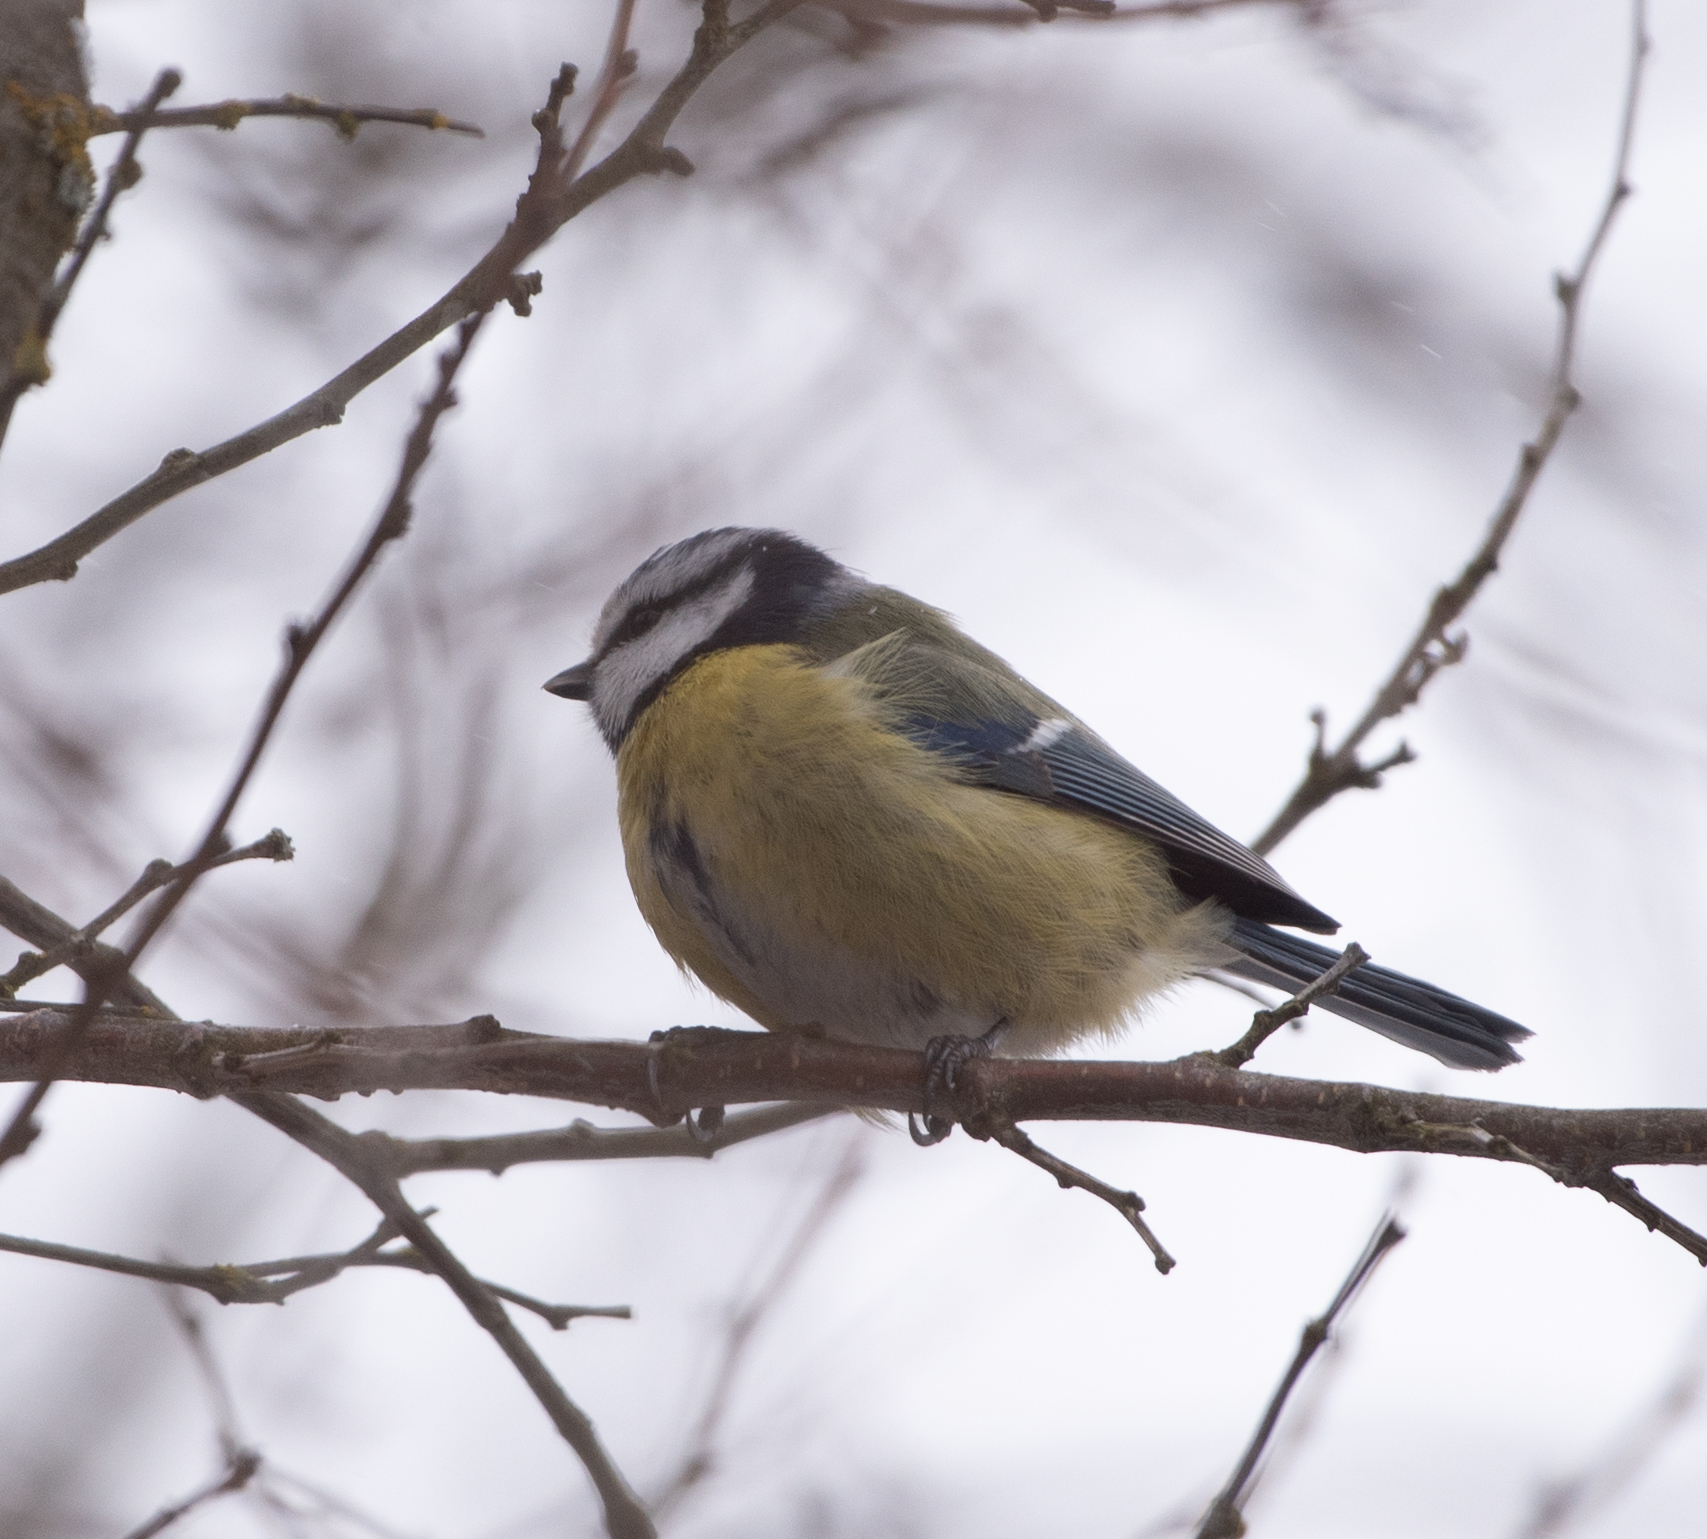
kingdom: Animalia
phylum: Chordata
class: Aves
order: Passeriformes
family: Paridae
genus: Cyanistes
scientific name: Cyanistes caeruleus
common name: Eurasian blue tit
